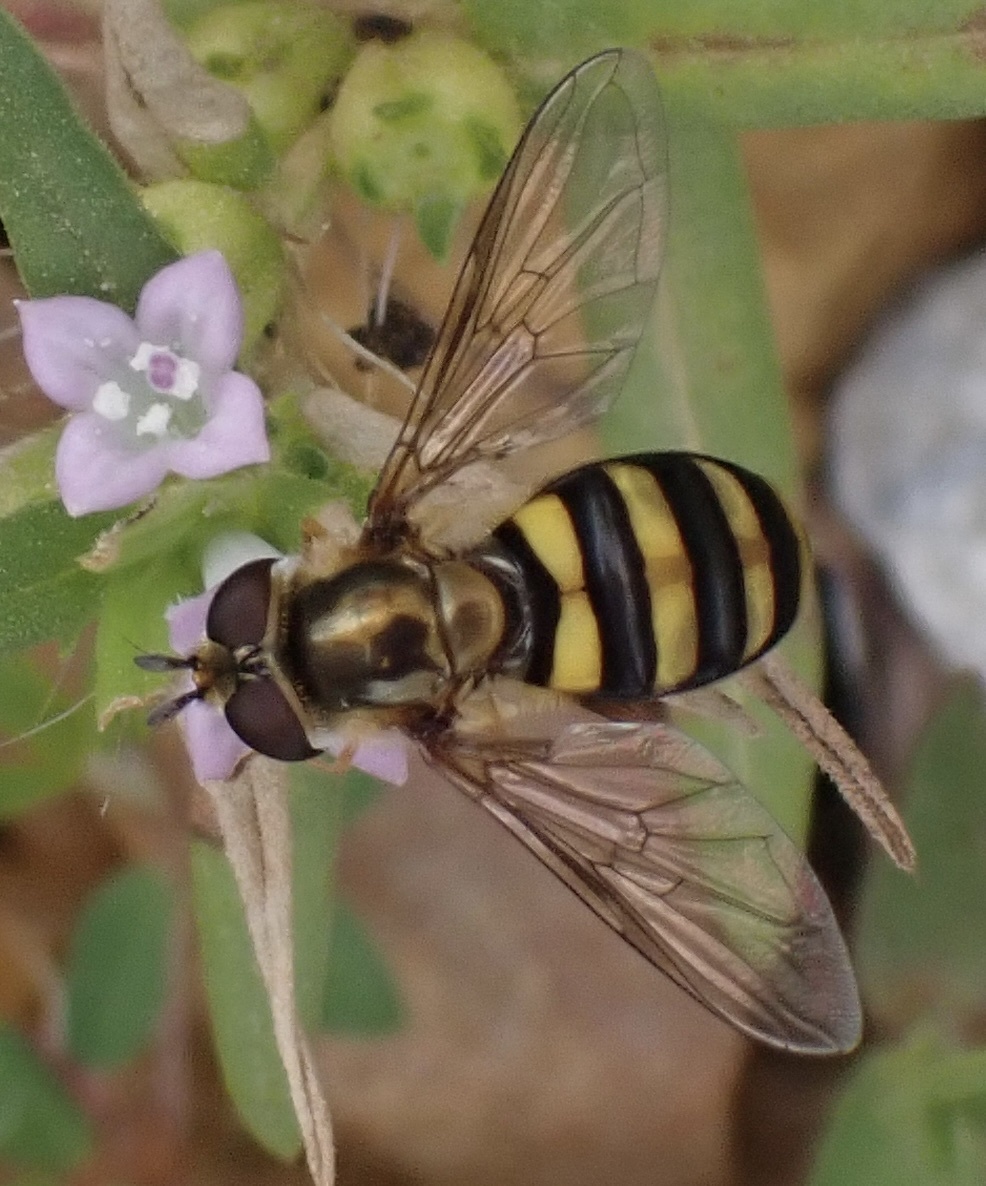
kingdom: Animalia
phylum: Arthropoda
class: Insecta
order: Diptera
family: Syrphidae
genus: Eupeodes
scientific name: Eupeodes
